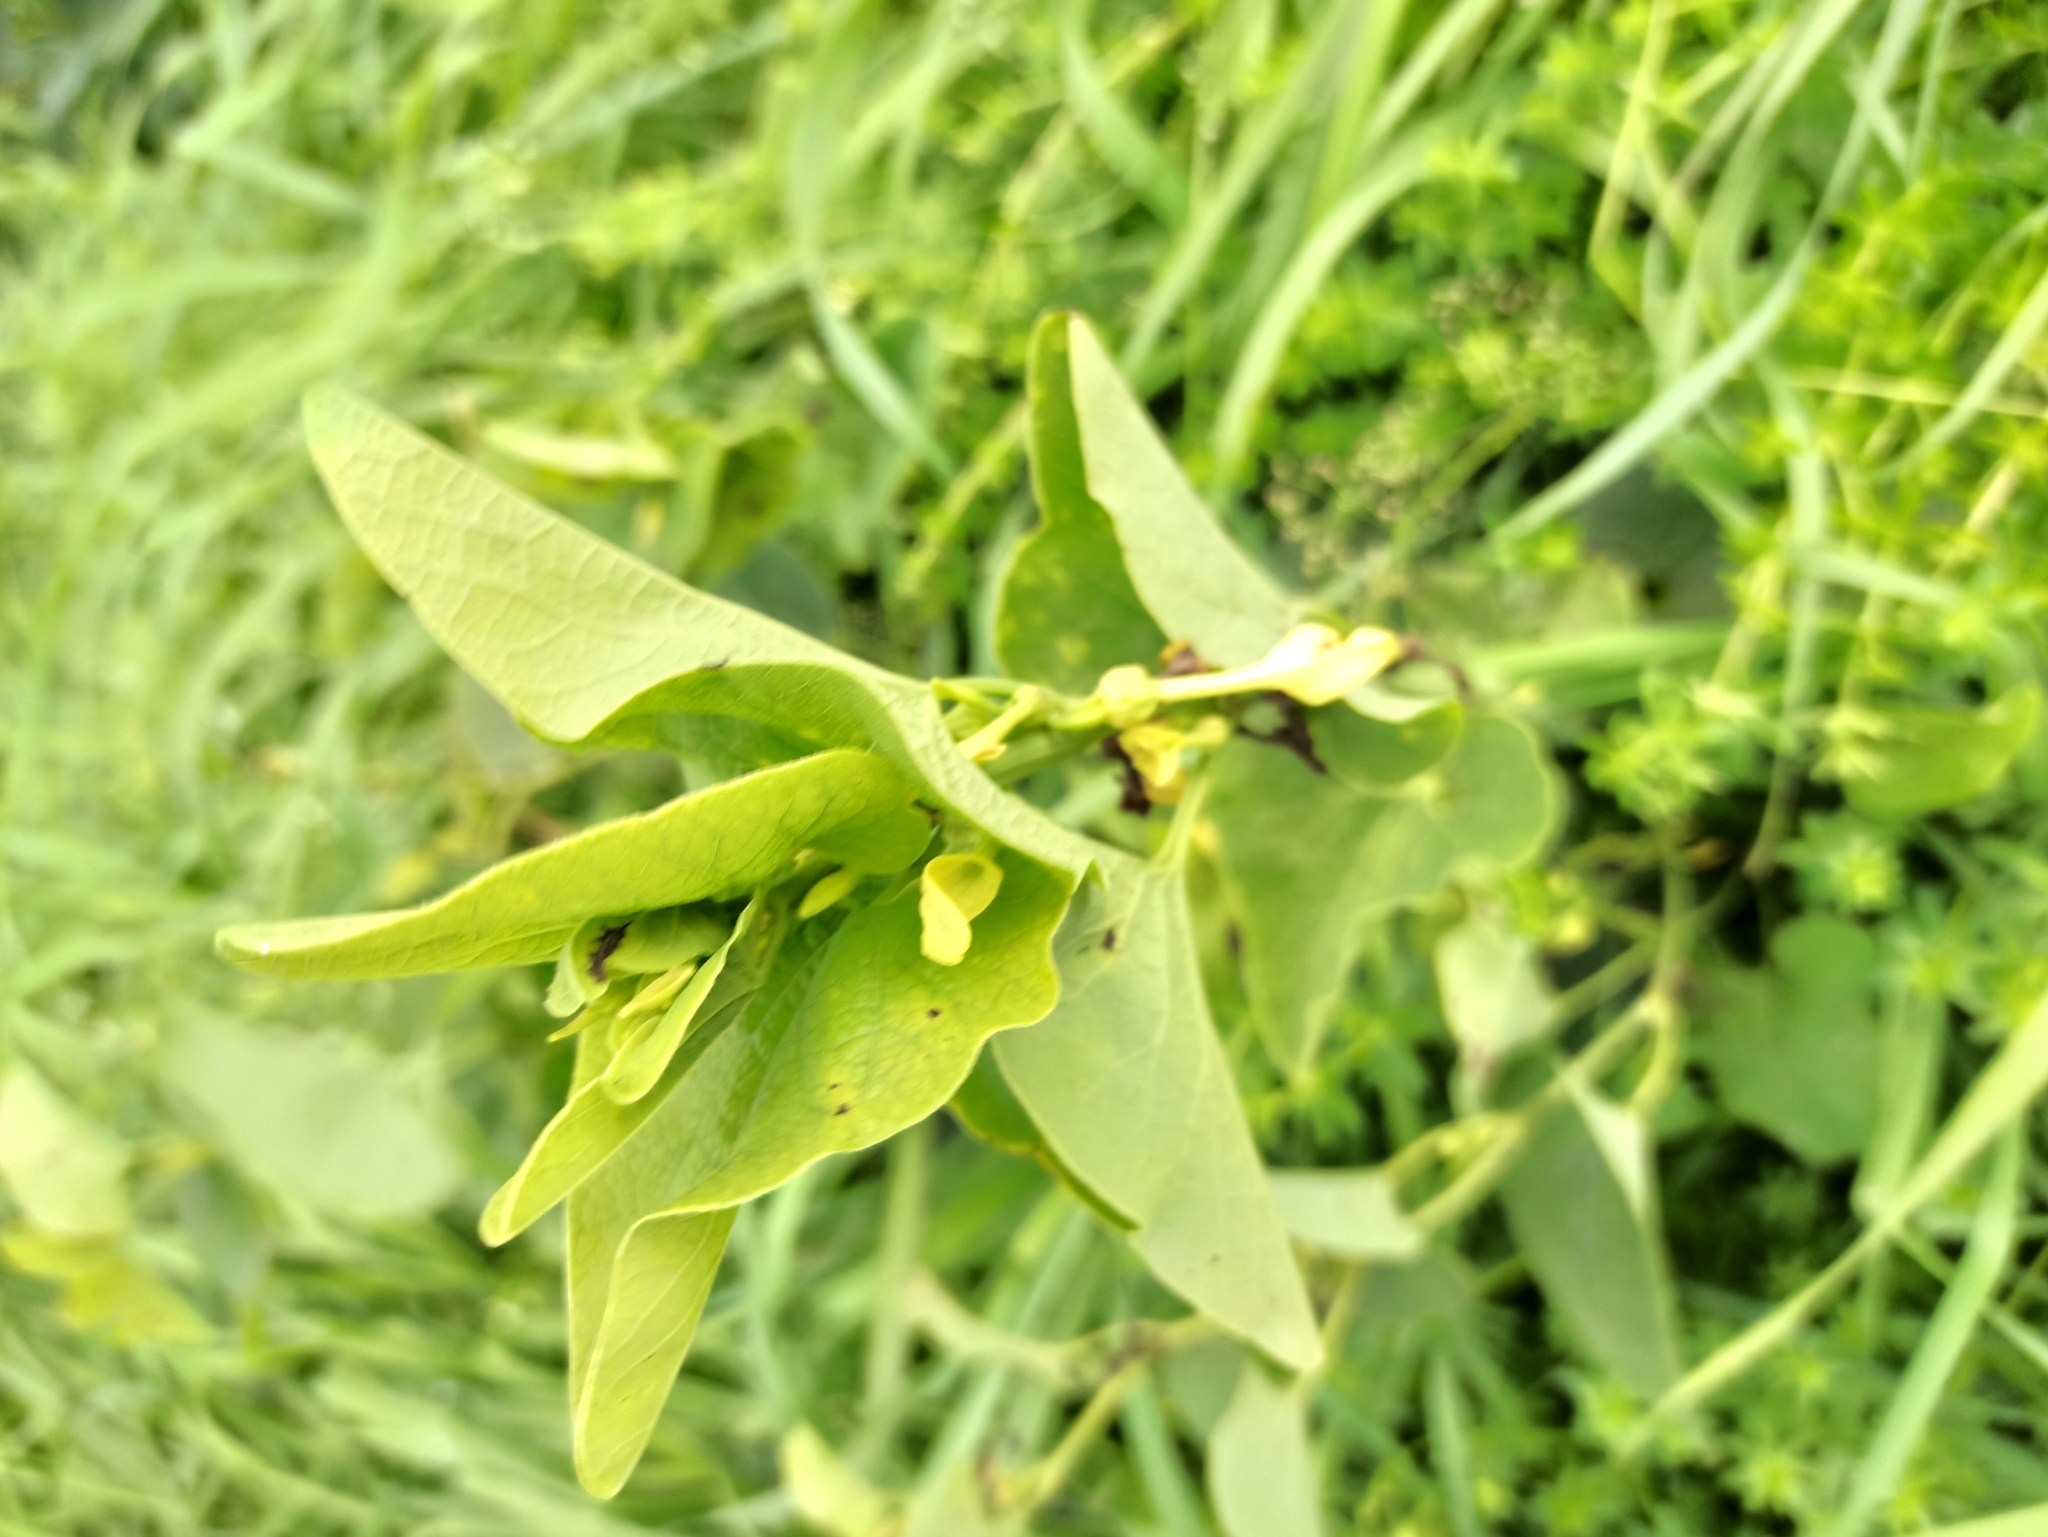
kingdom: Plantae
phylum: Tracheophyta
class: Magnoliopsida
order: Piperales
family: Aristolochiaceae
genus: Aristolochia
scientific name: Aristolochia clematitis
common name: Birthwort
